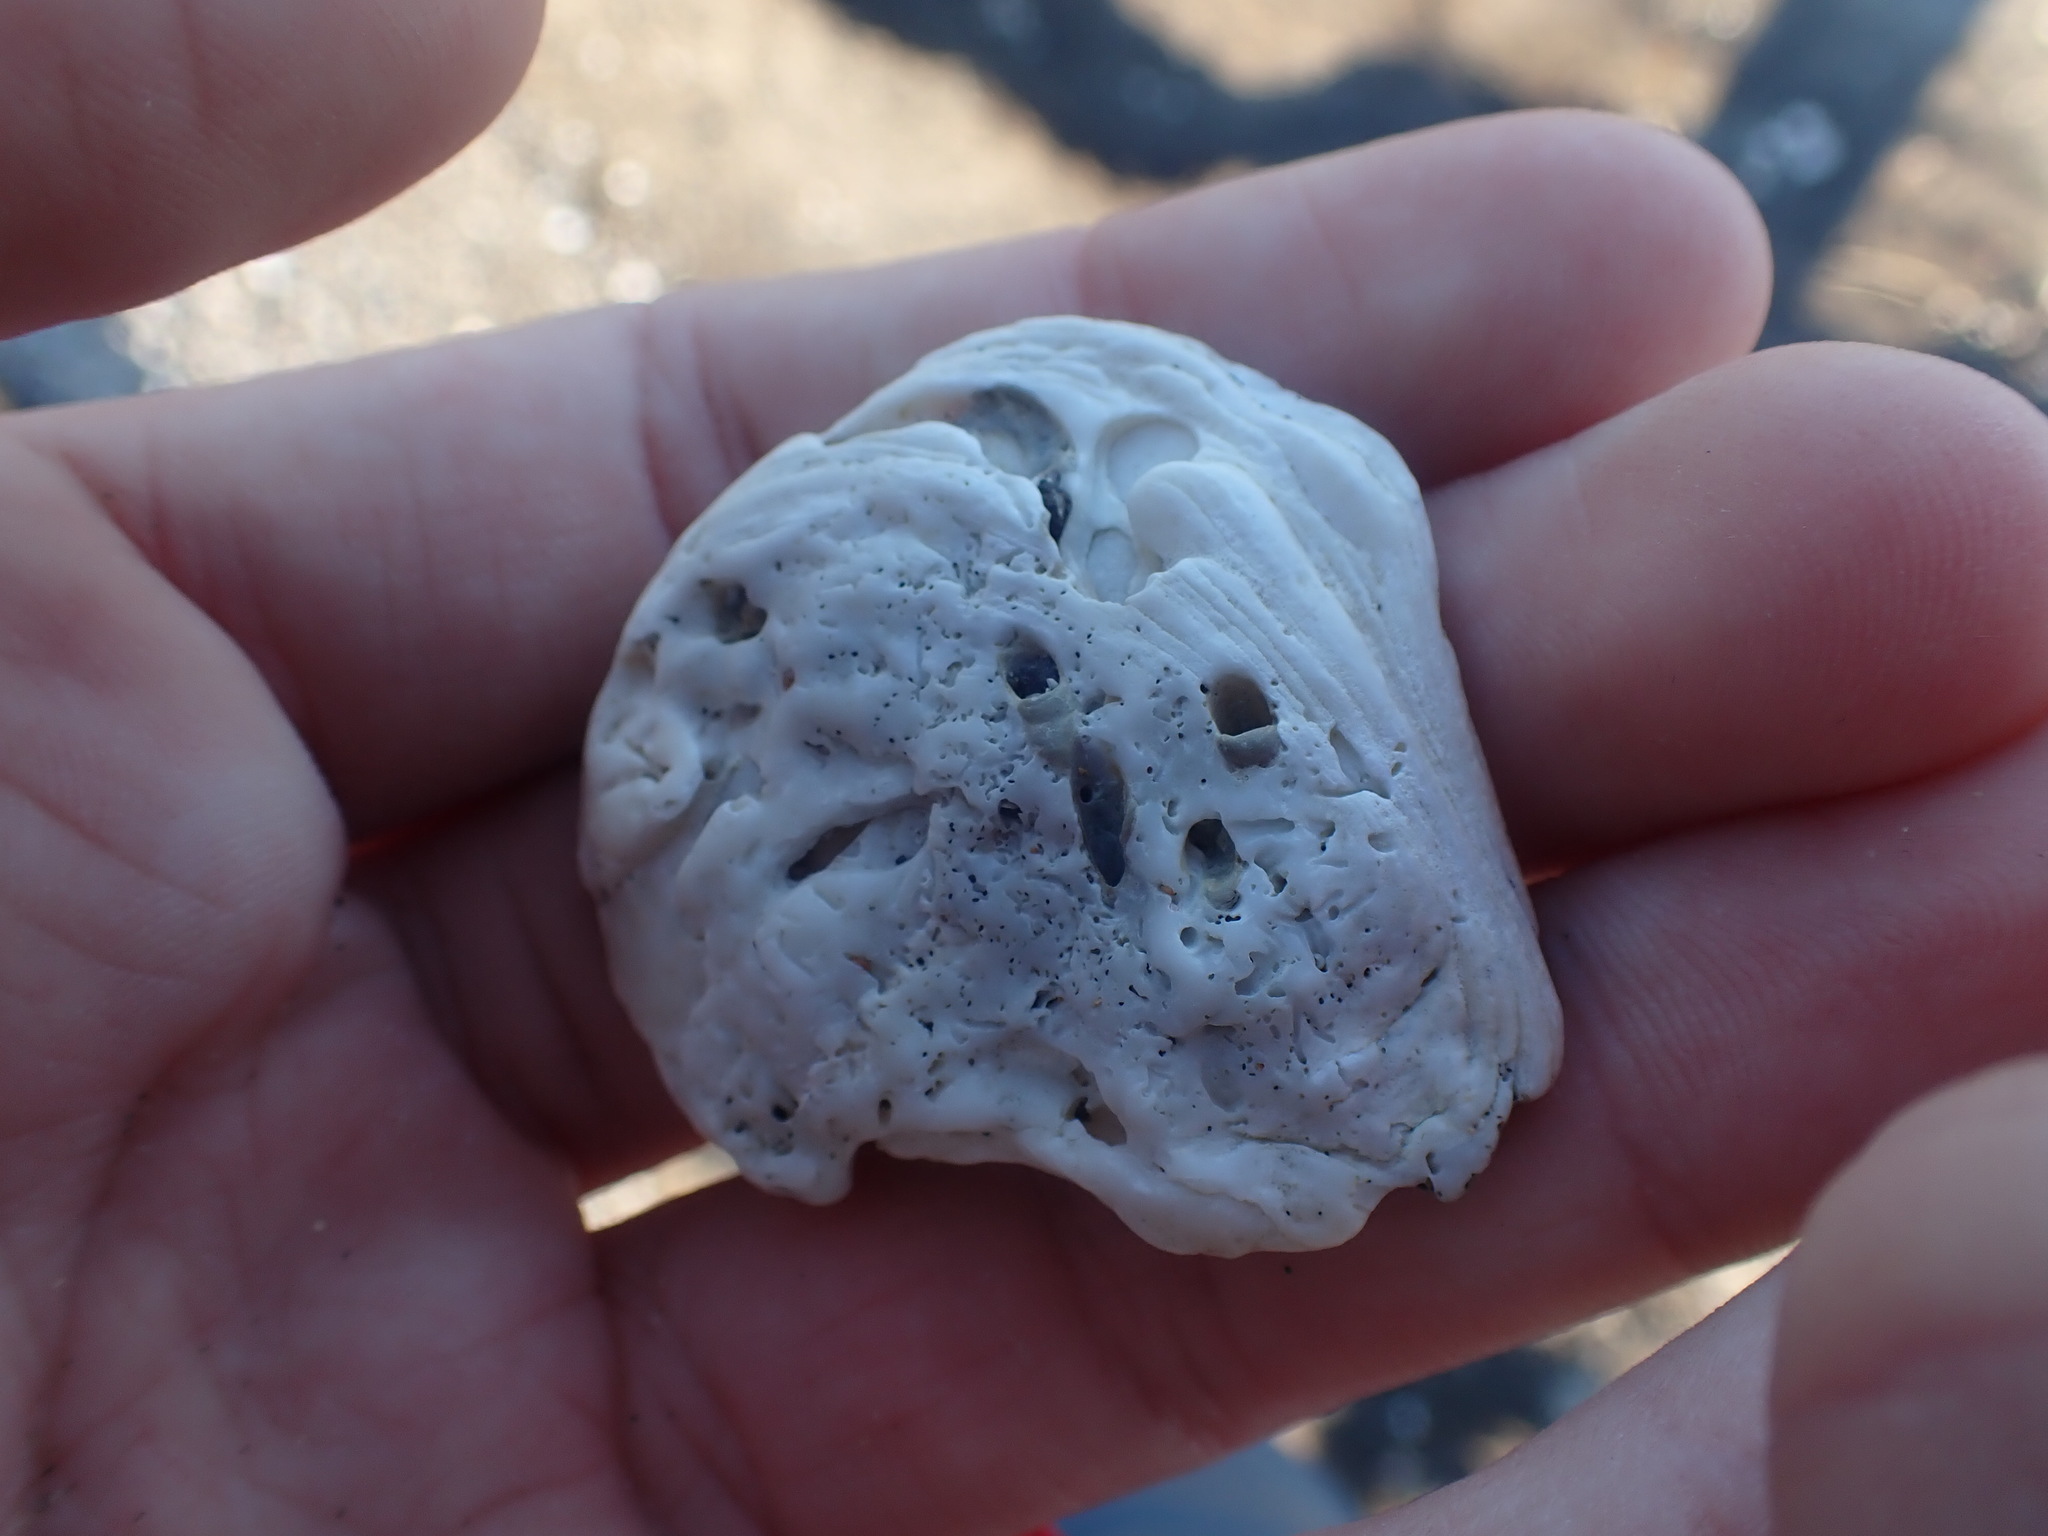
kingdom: Animalia
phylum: Mollusca
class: Bivalvia
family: Cleidothaeridae
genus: Cleidothaerus
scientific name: Cleidothaerus albidus
